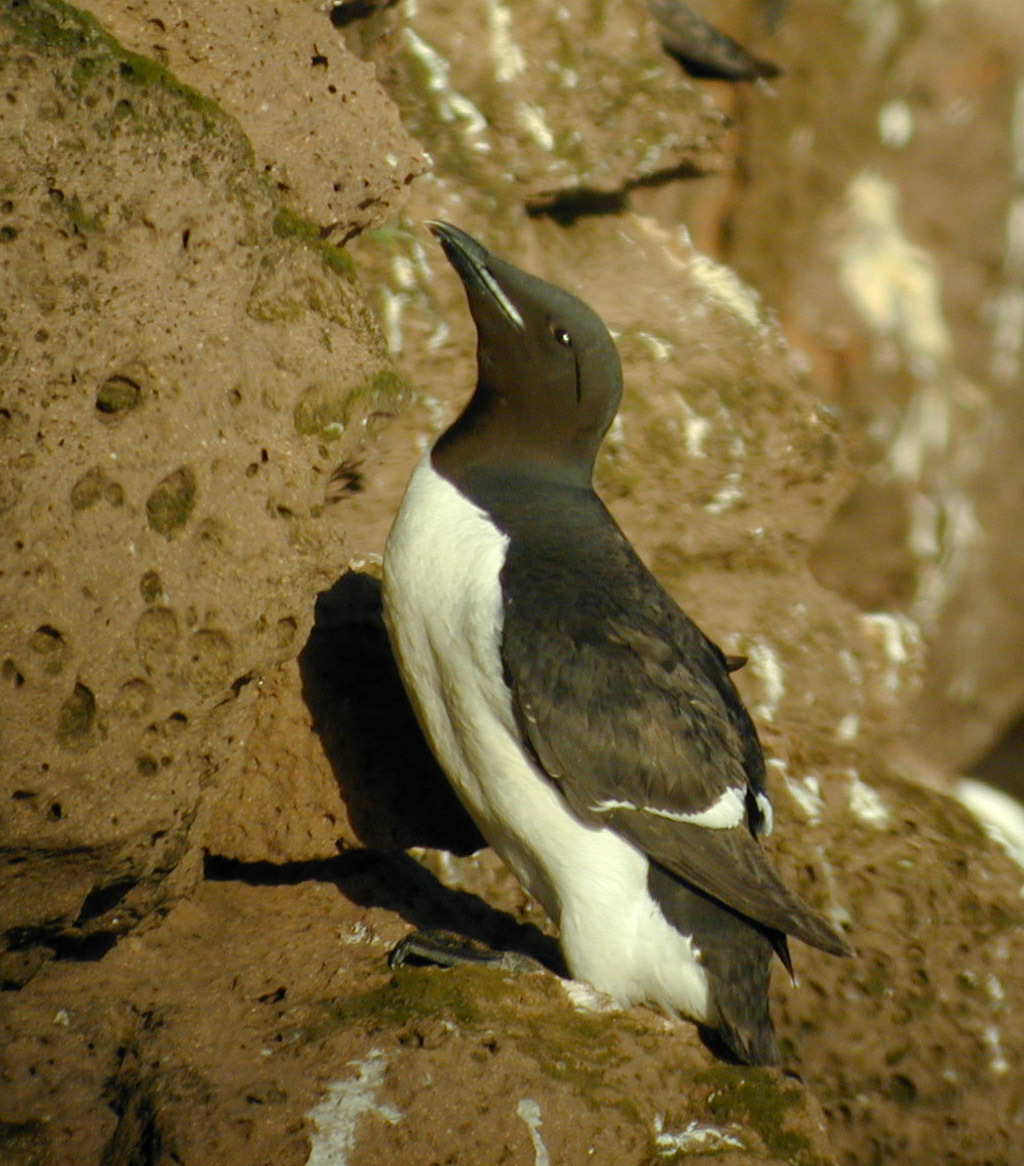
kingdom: Animalia
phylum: Chordata
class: Aves
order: Charadriiformes
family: Alcidae
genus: Uria
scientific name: Uria lomvia
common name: Thick-billed murre
